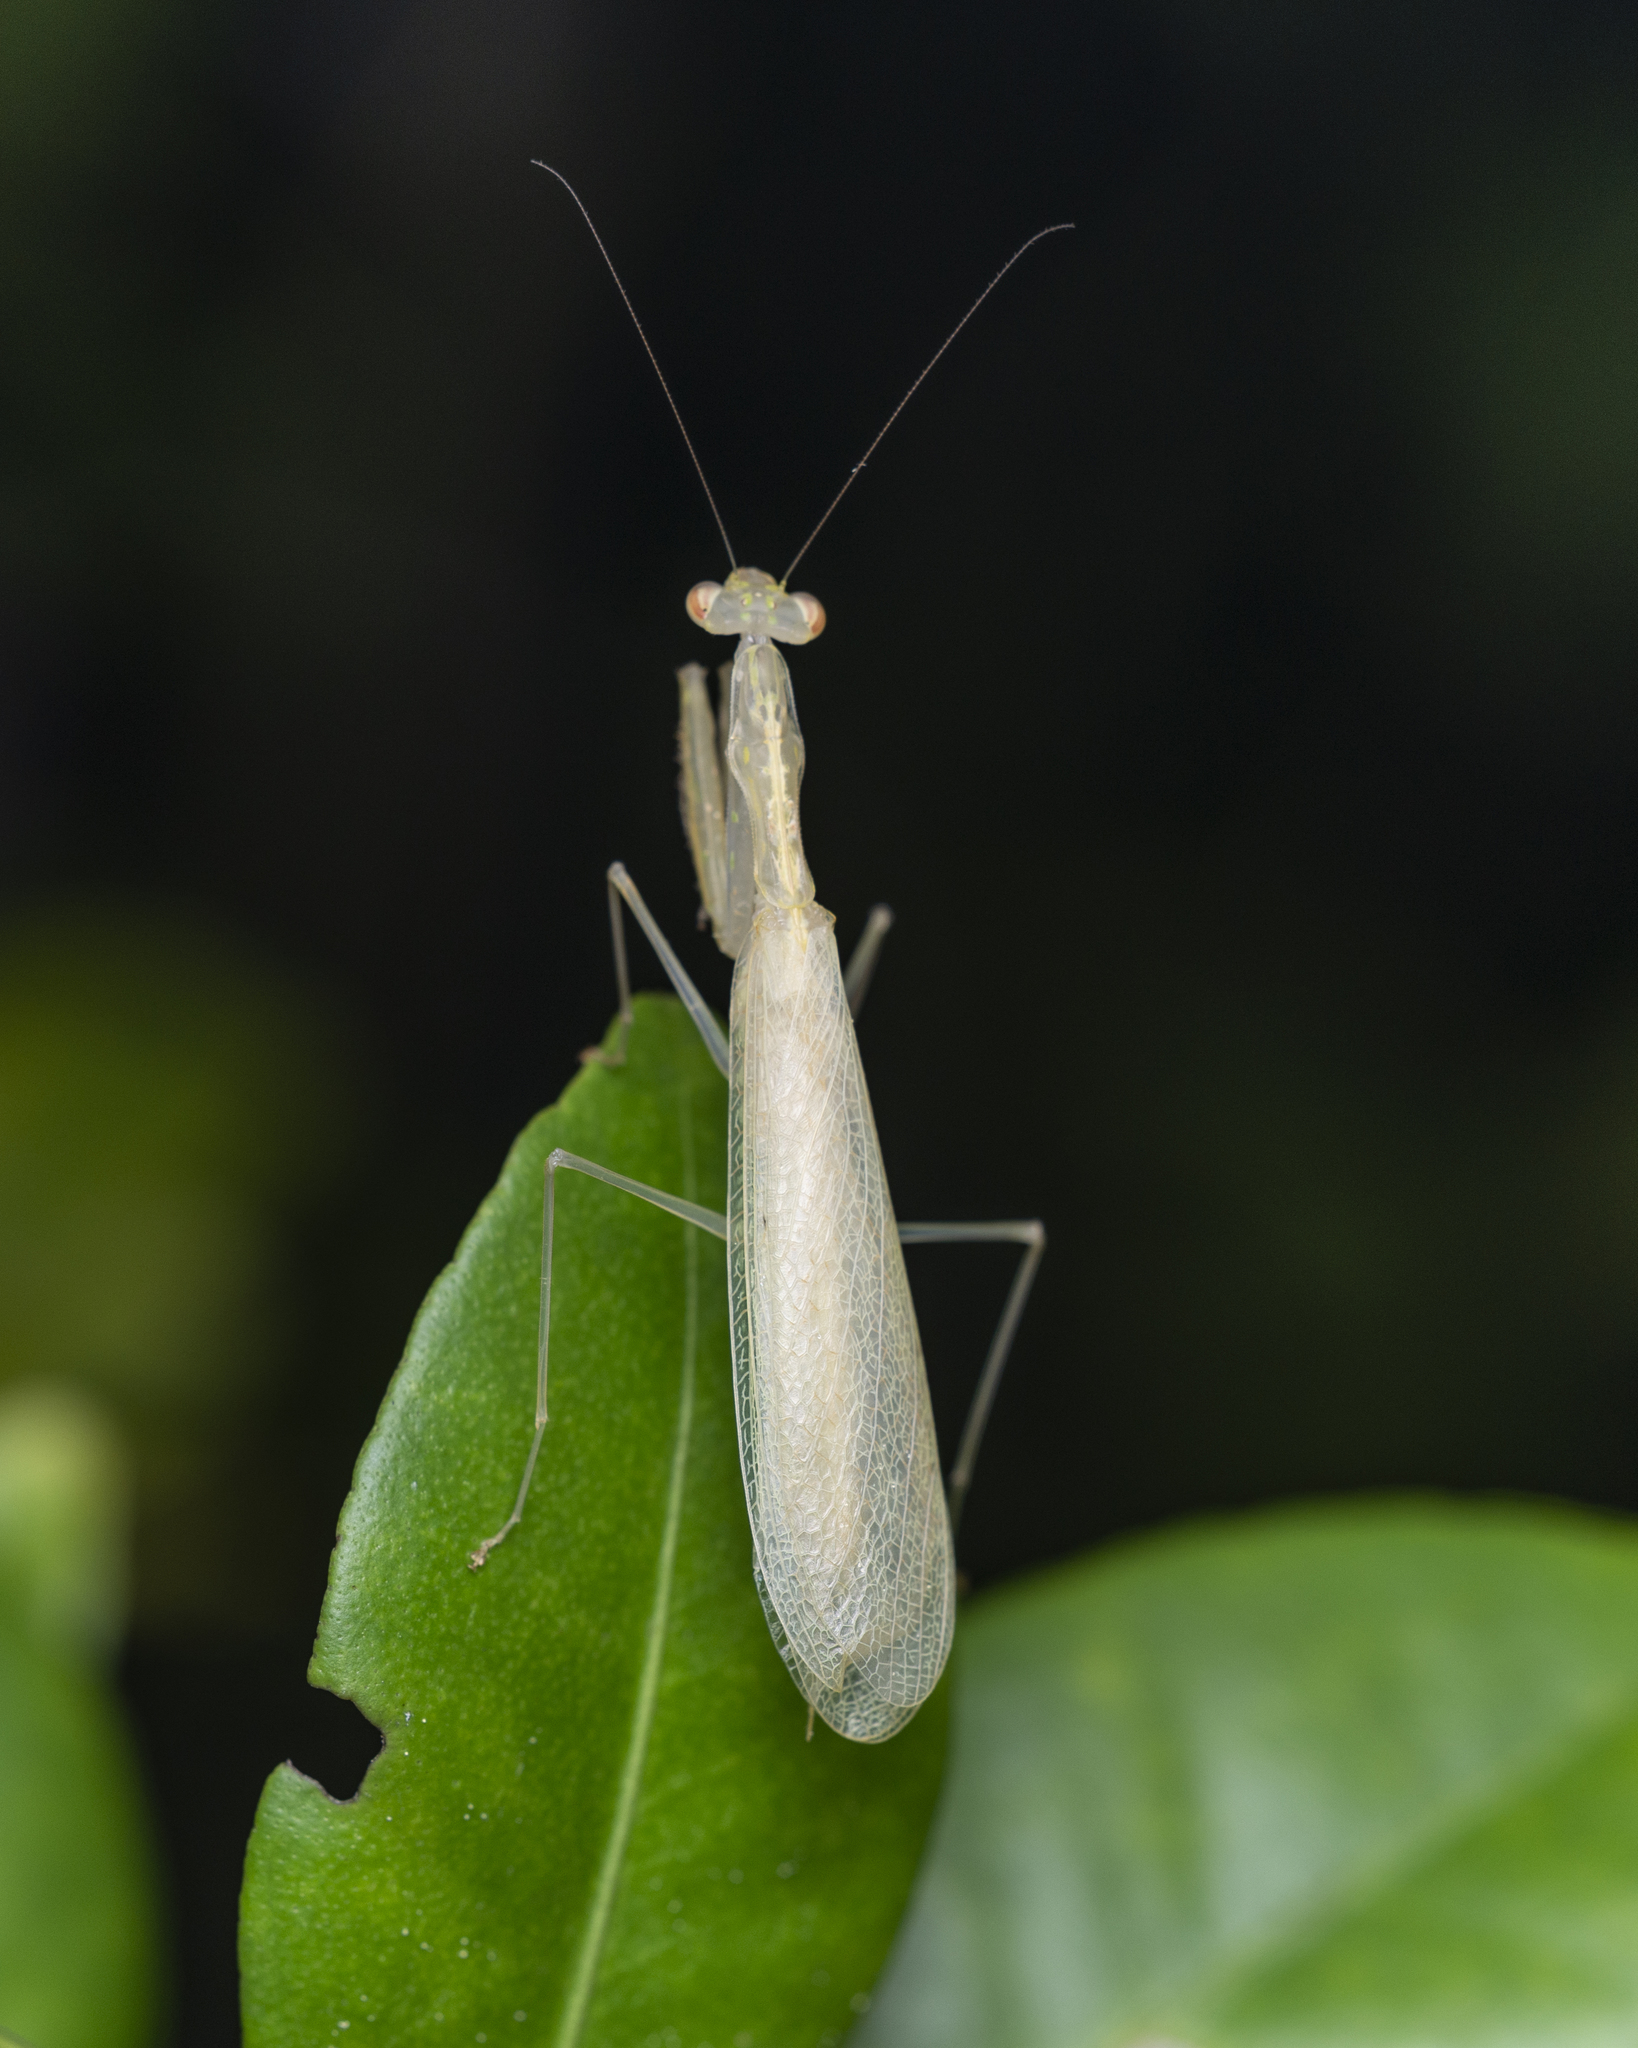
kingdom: Animalia
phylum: Arthropoda
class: Insecta
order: Mantodea
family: Nanomantidae
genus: Sinomantis
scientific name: Sinomantis denticulata
